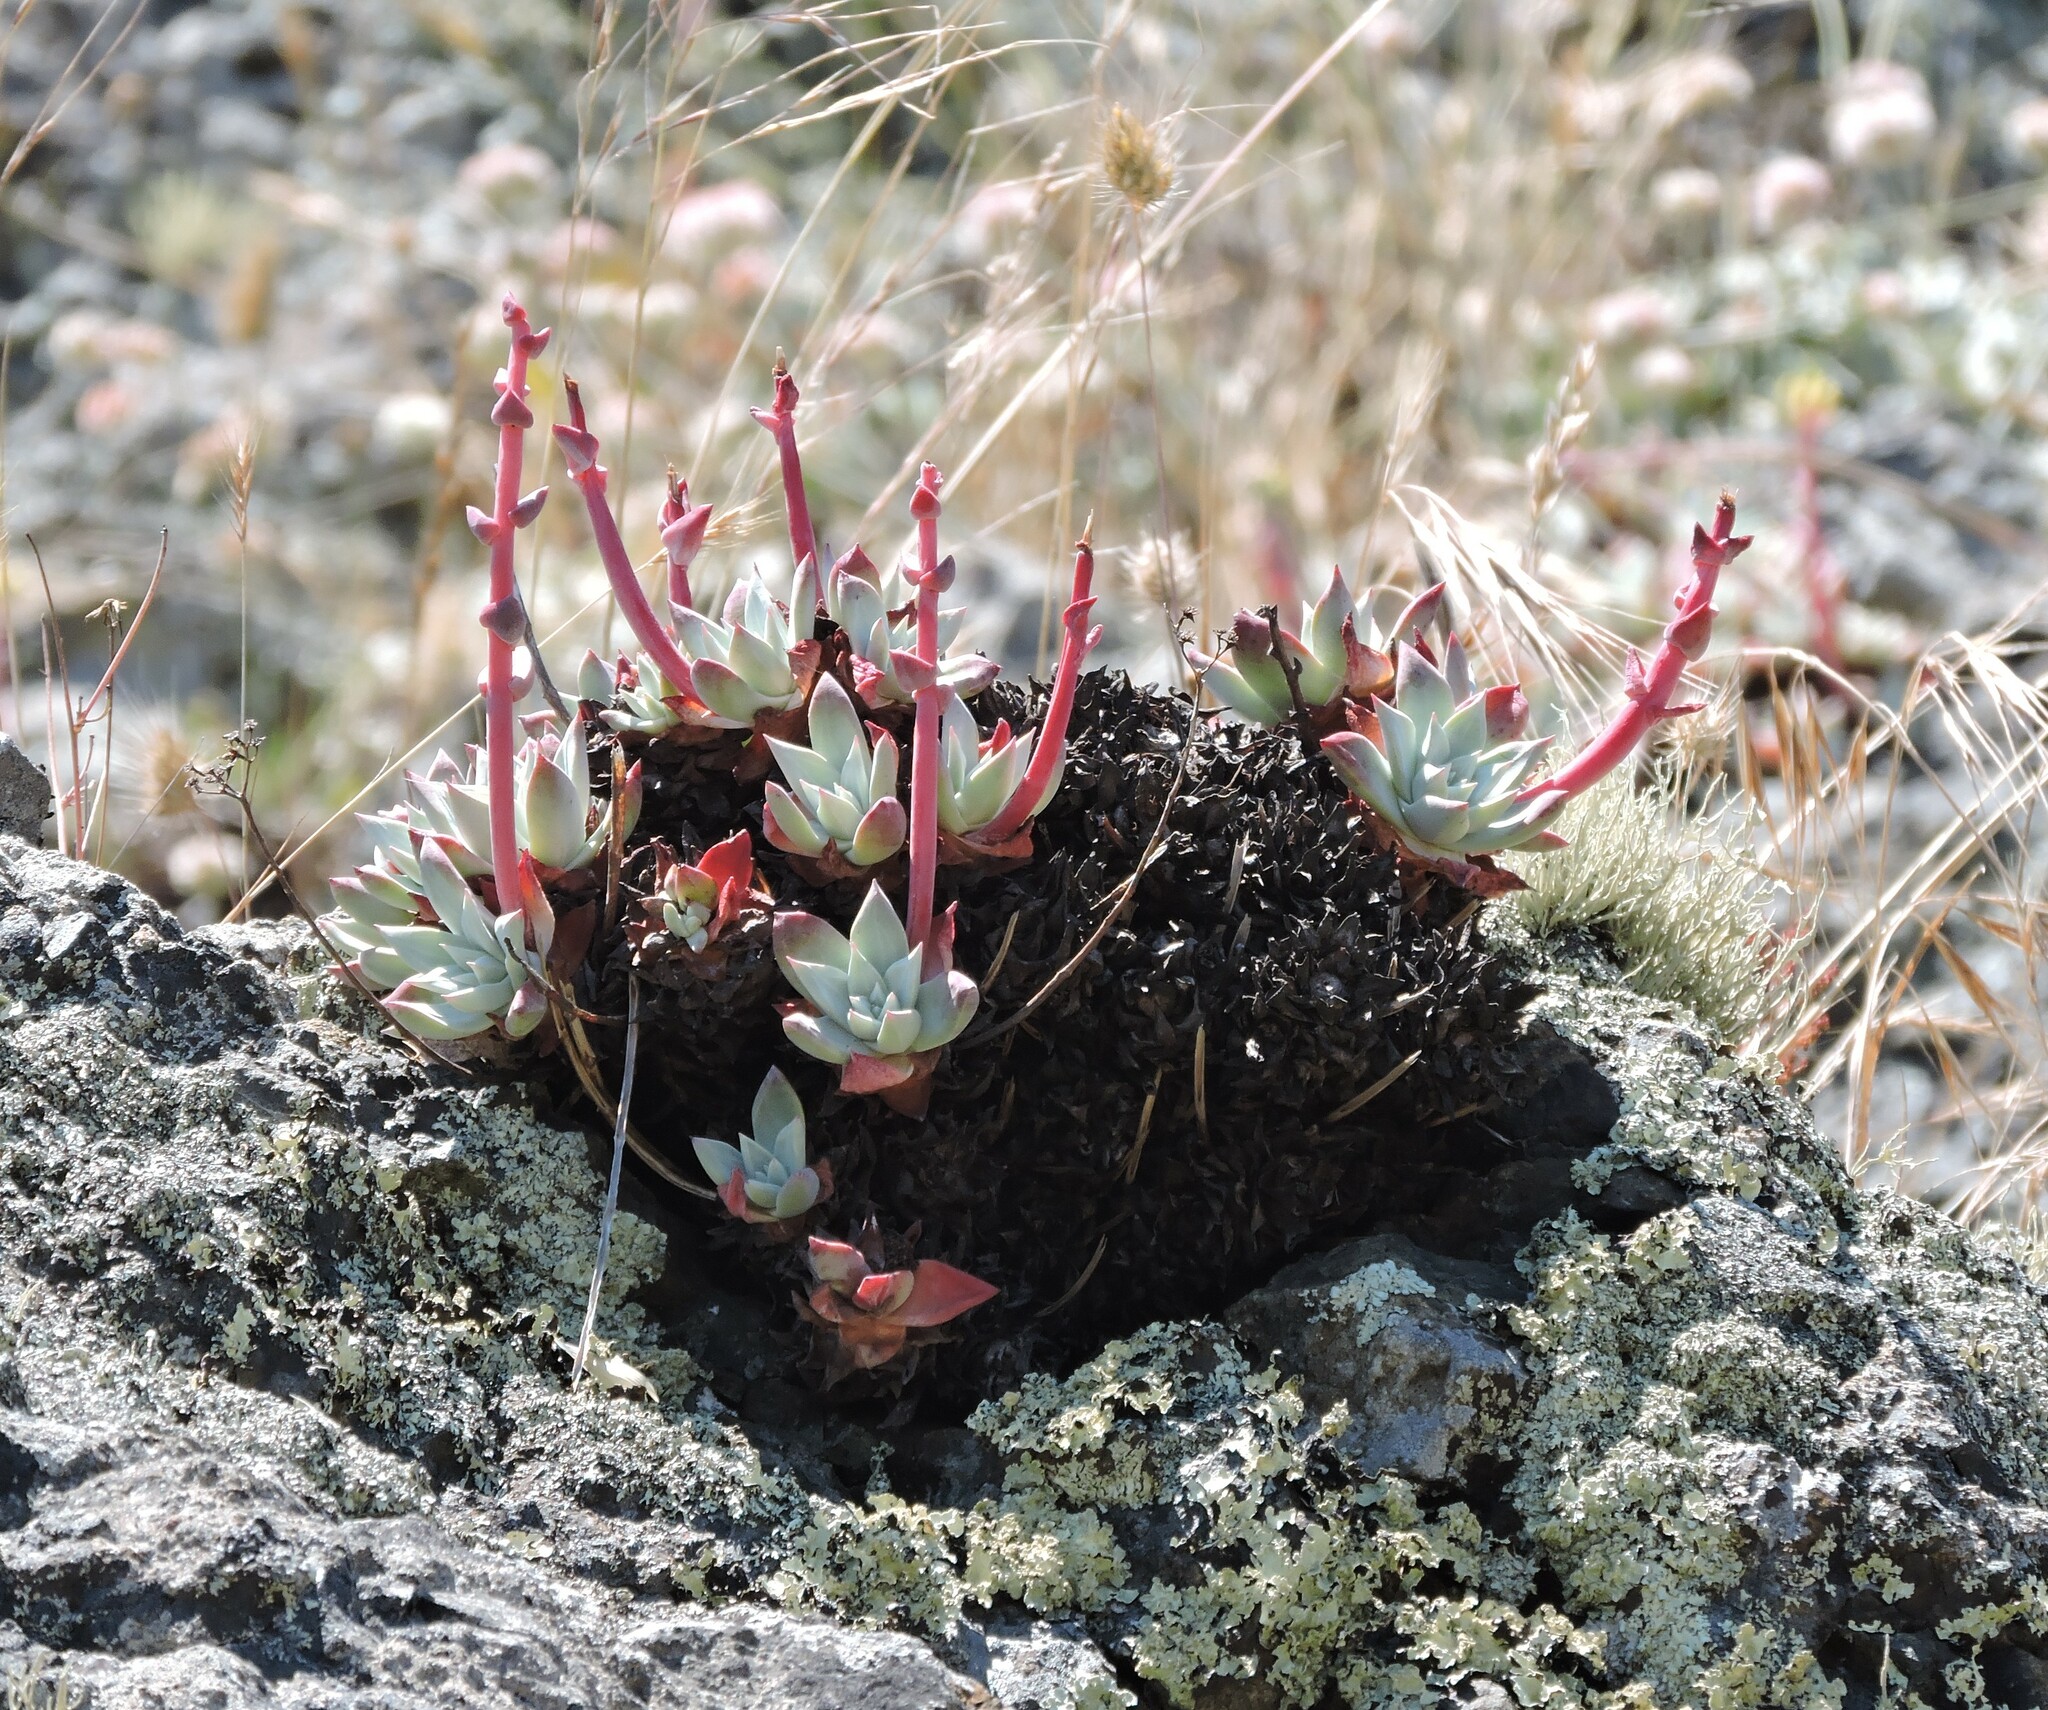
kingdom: Plantae
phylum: Tracheophyta
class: Magnoliopsida
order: Saxifragales
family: Crassulaceae
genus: Dudleya
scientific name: Dudleya farinosa
